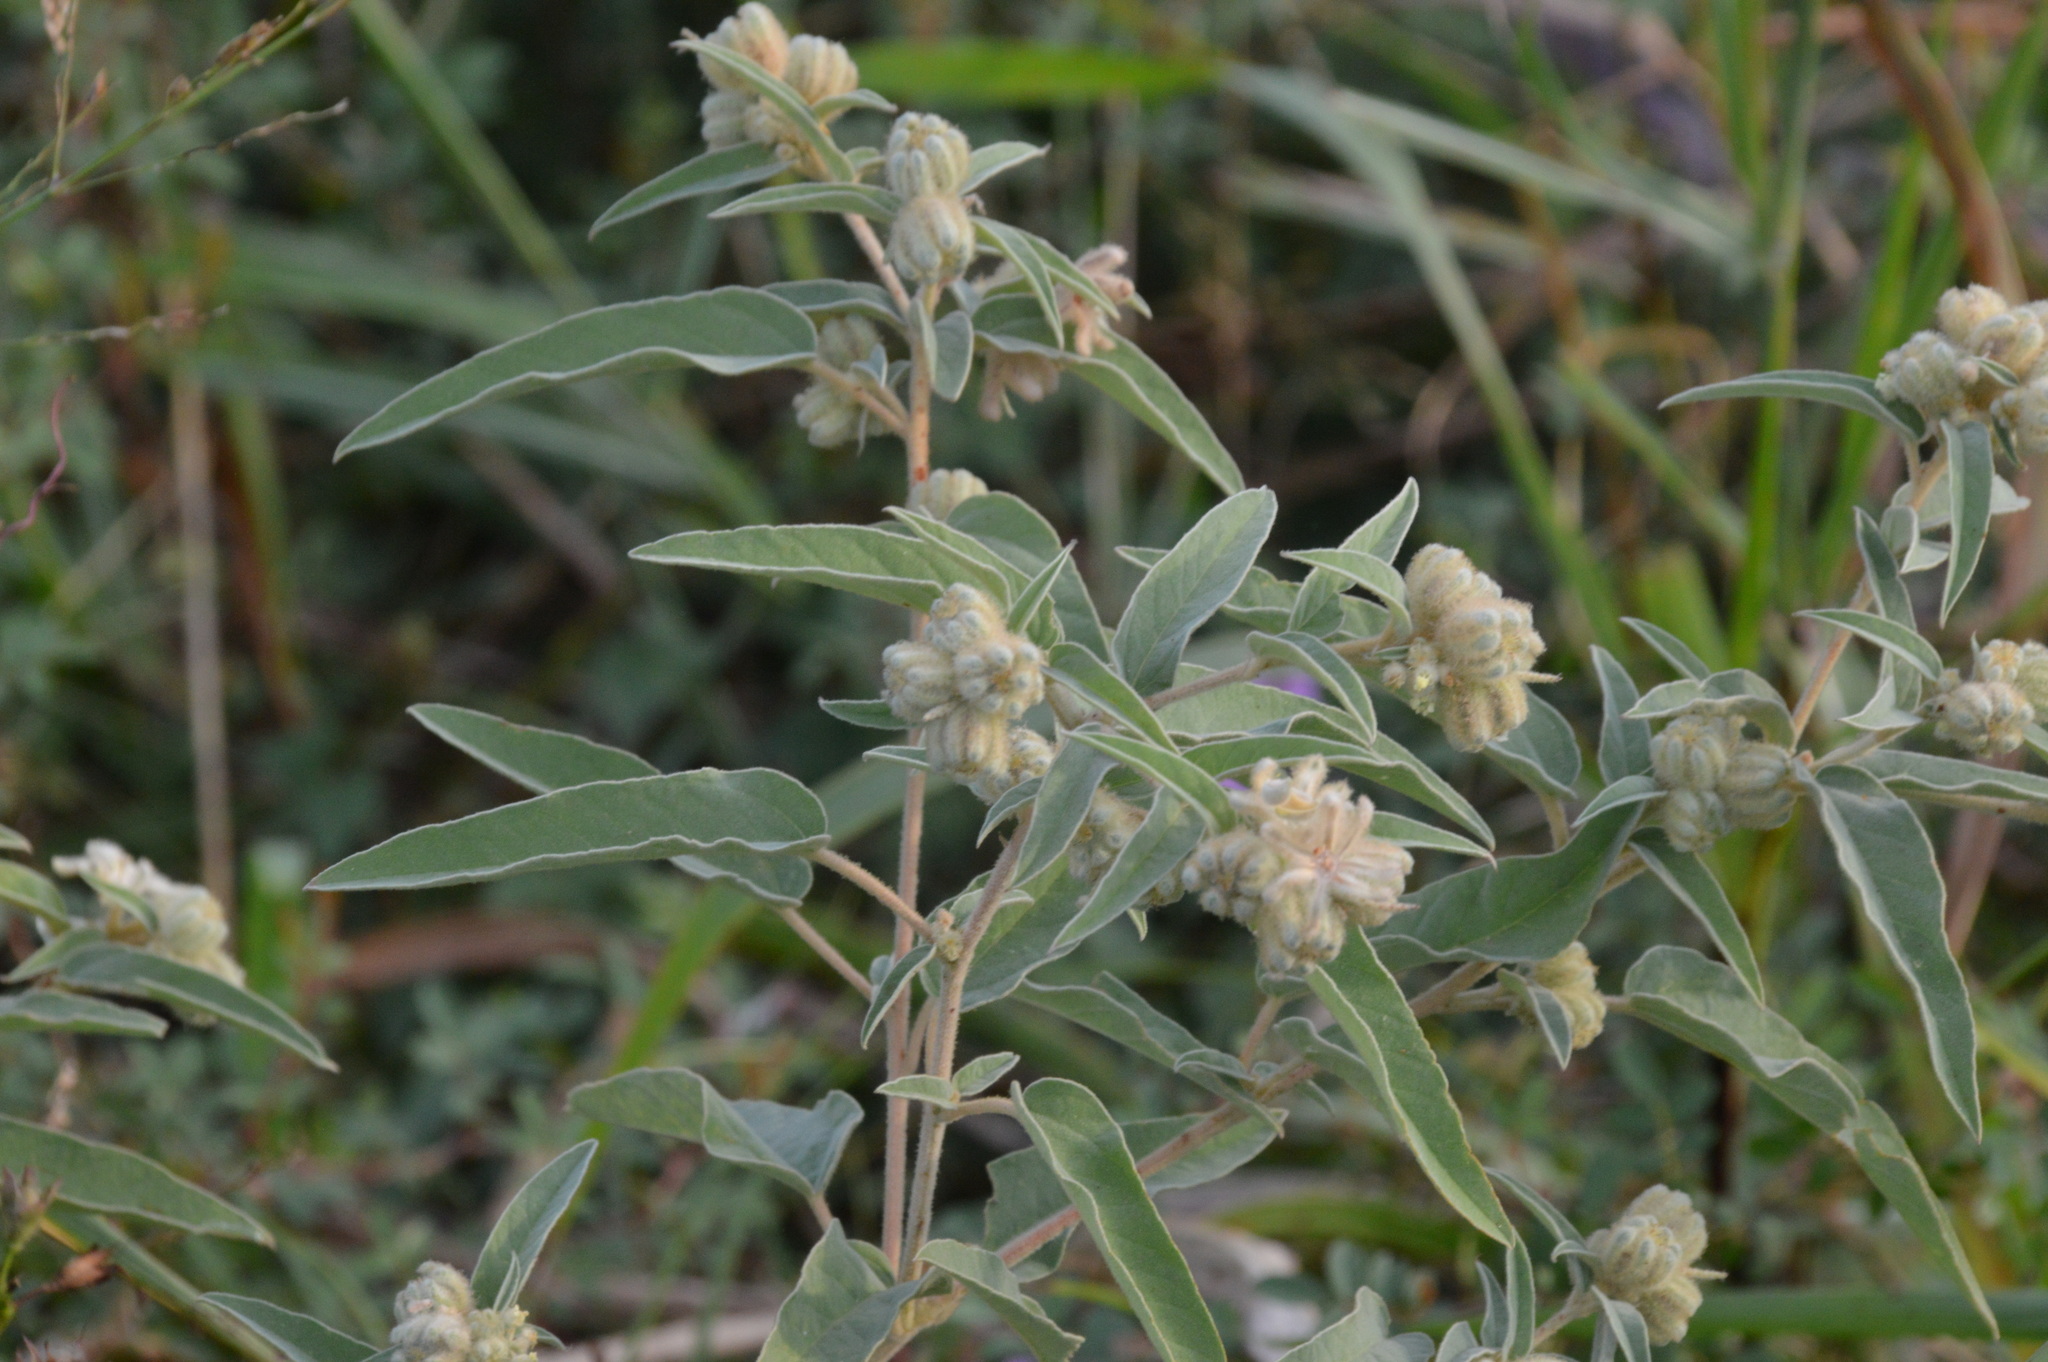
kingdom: Plantae
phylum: Tracheophyta
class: Magnoliopsida
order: Malpighiales
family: Euphorbiaceae
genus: Croton
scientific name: Croton lindheimeri
